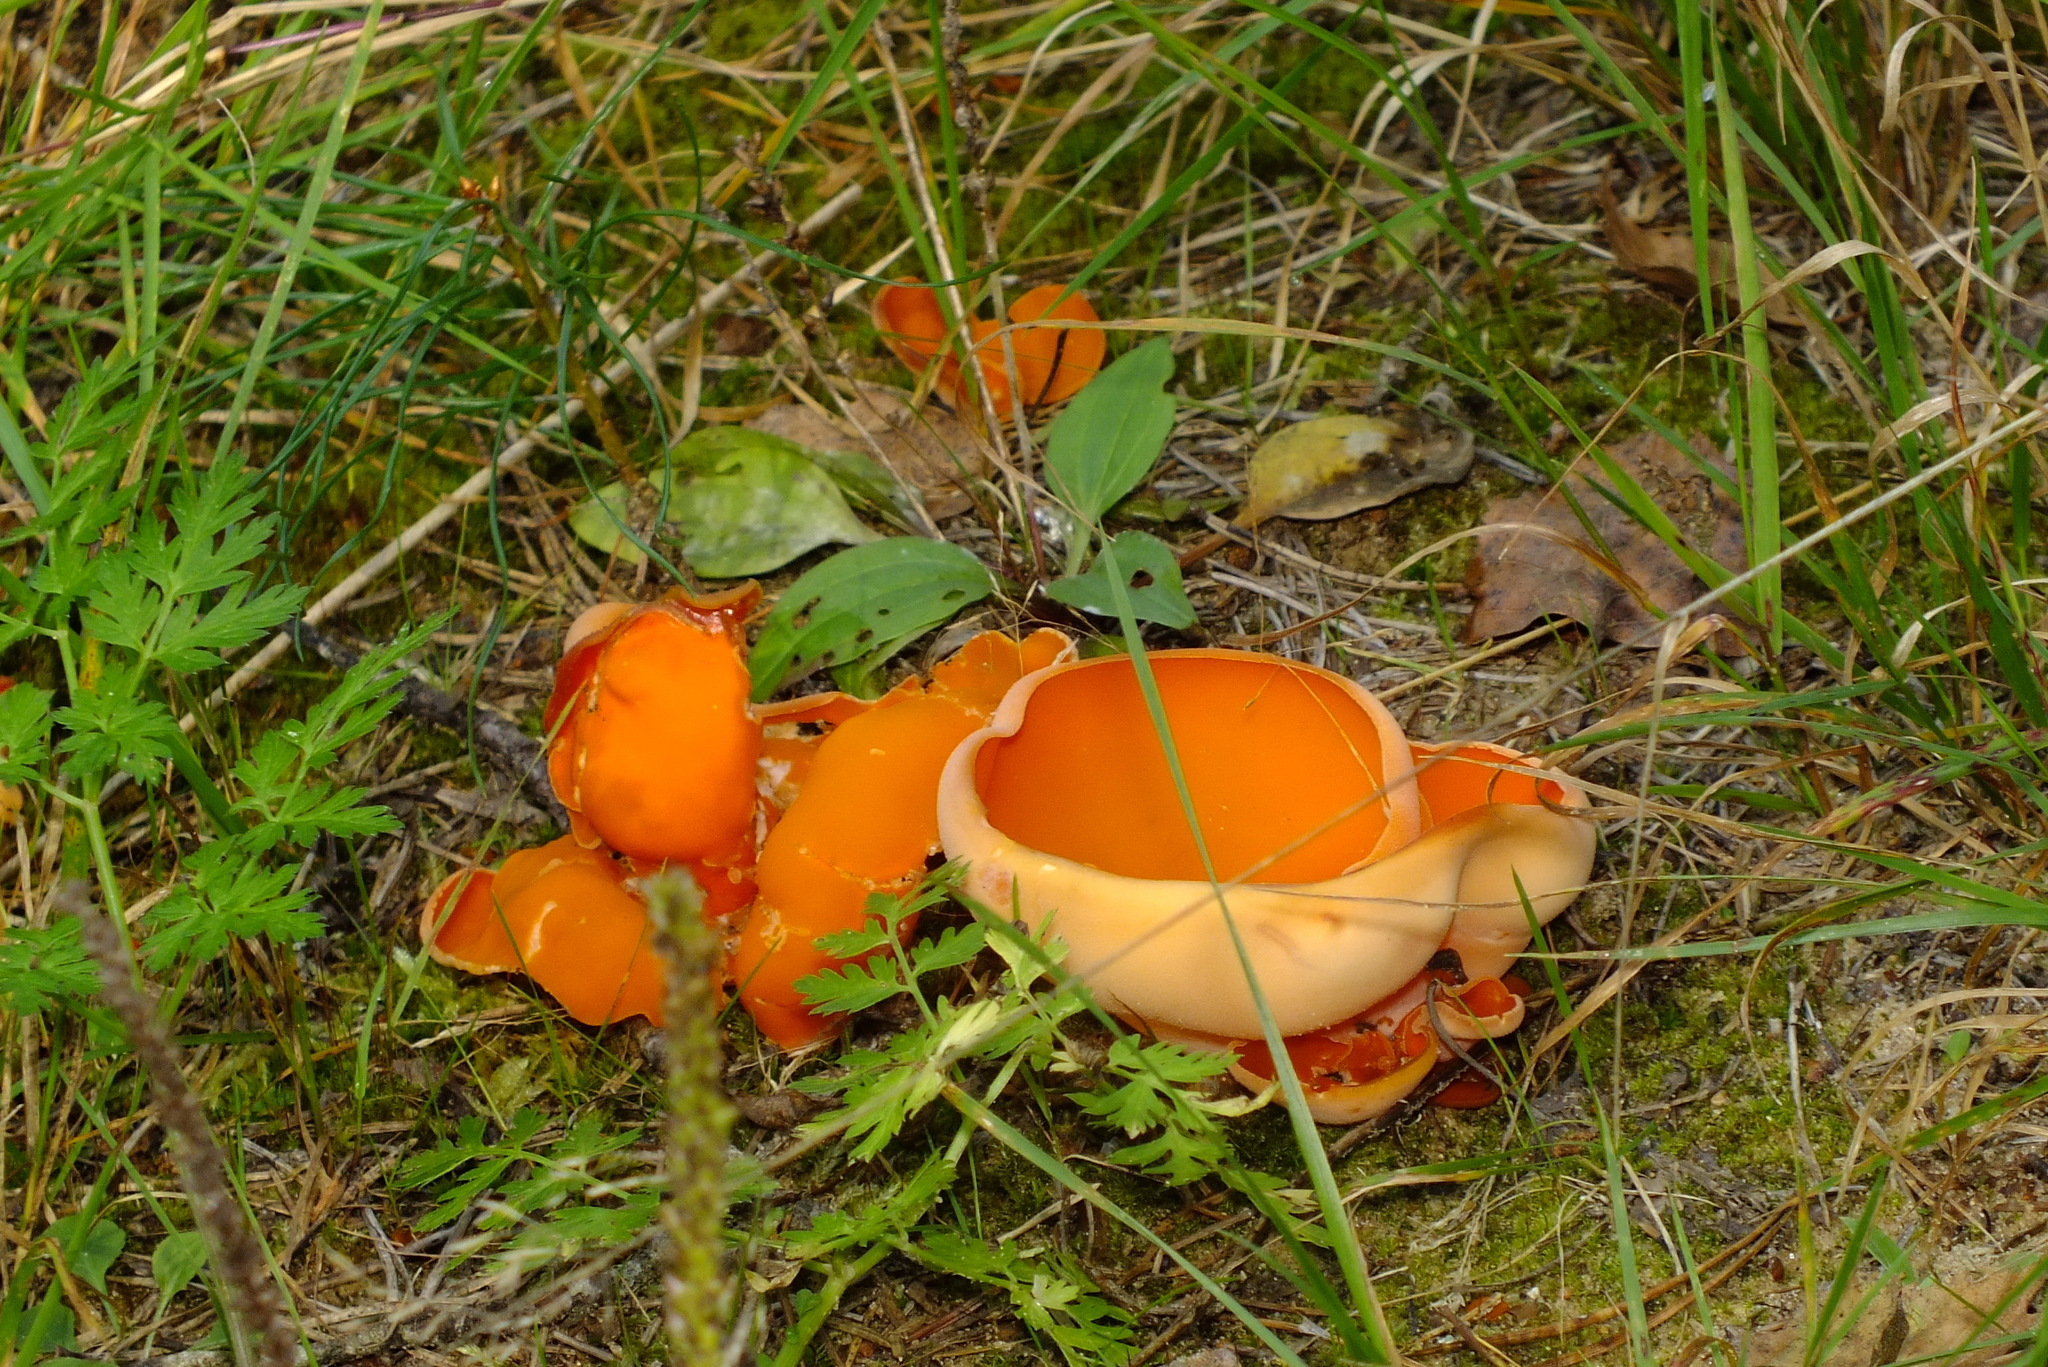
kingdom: Fungi
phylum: Ascomycota
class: Pezizomycetes
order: Pezizales
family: Pyronemataceae
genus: Aleuria
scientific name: Aleuria aurantia
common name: Orange peel fungus
